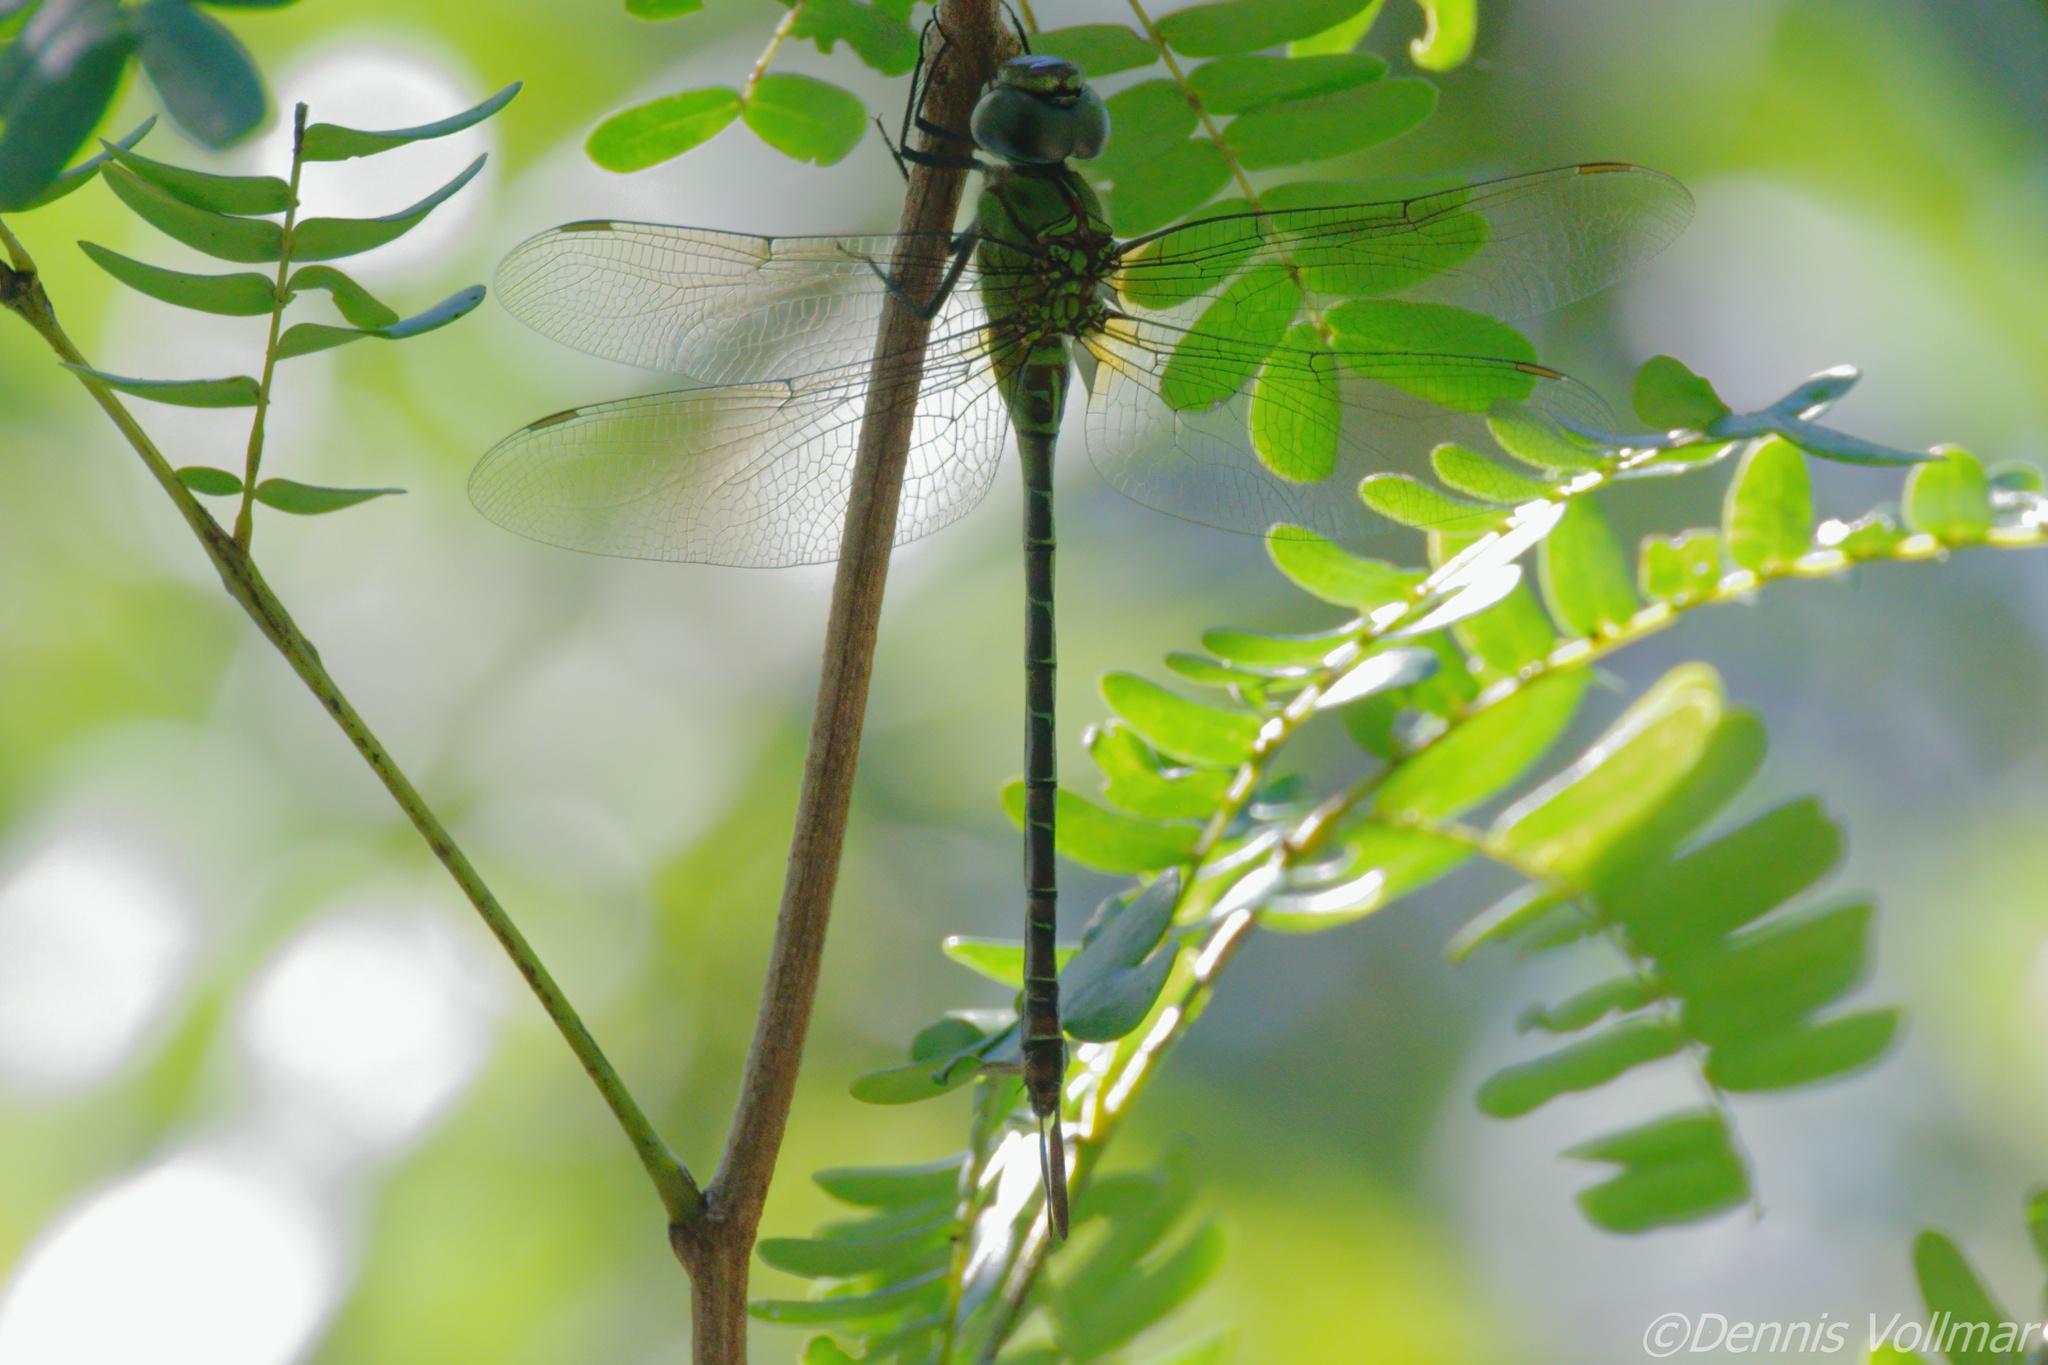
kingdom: Animalia
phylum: Arthropoda
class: Insecta
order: Odonata
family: Aeshnidae
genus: Coryphaeschna
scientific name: Coryphaeschna adnexa
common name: Blue-faced darner
